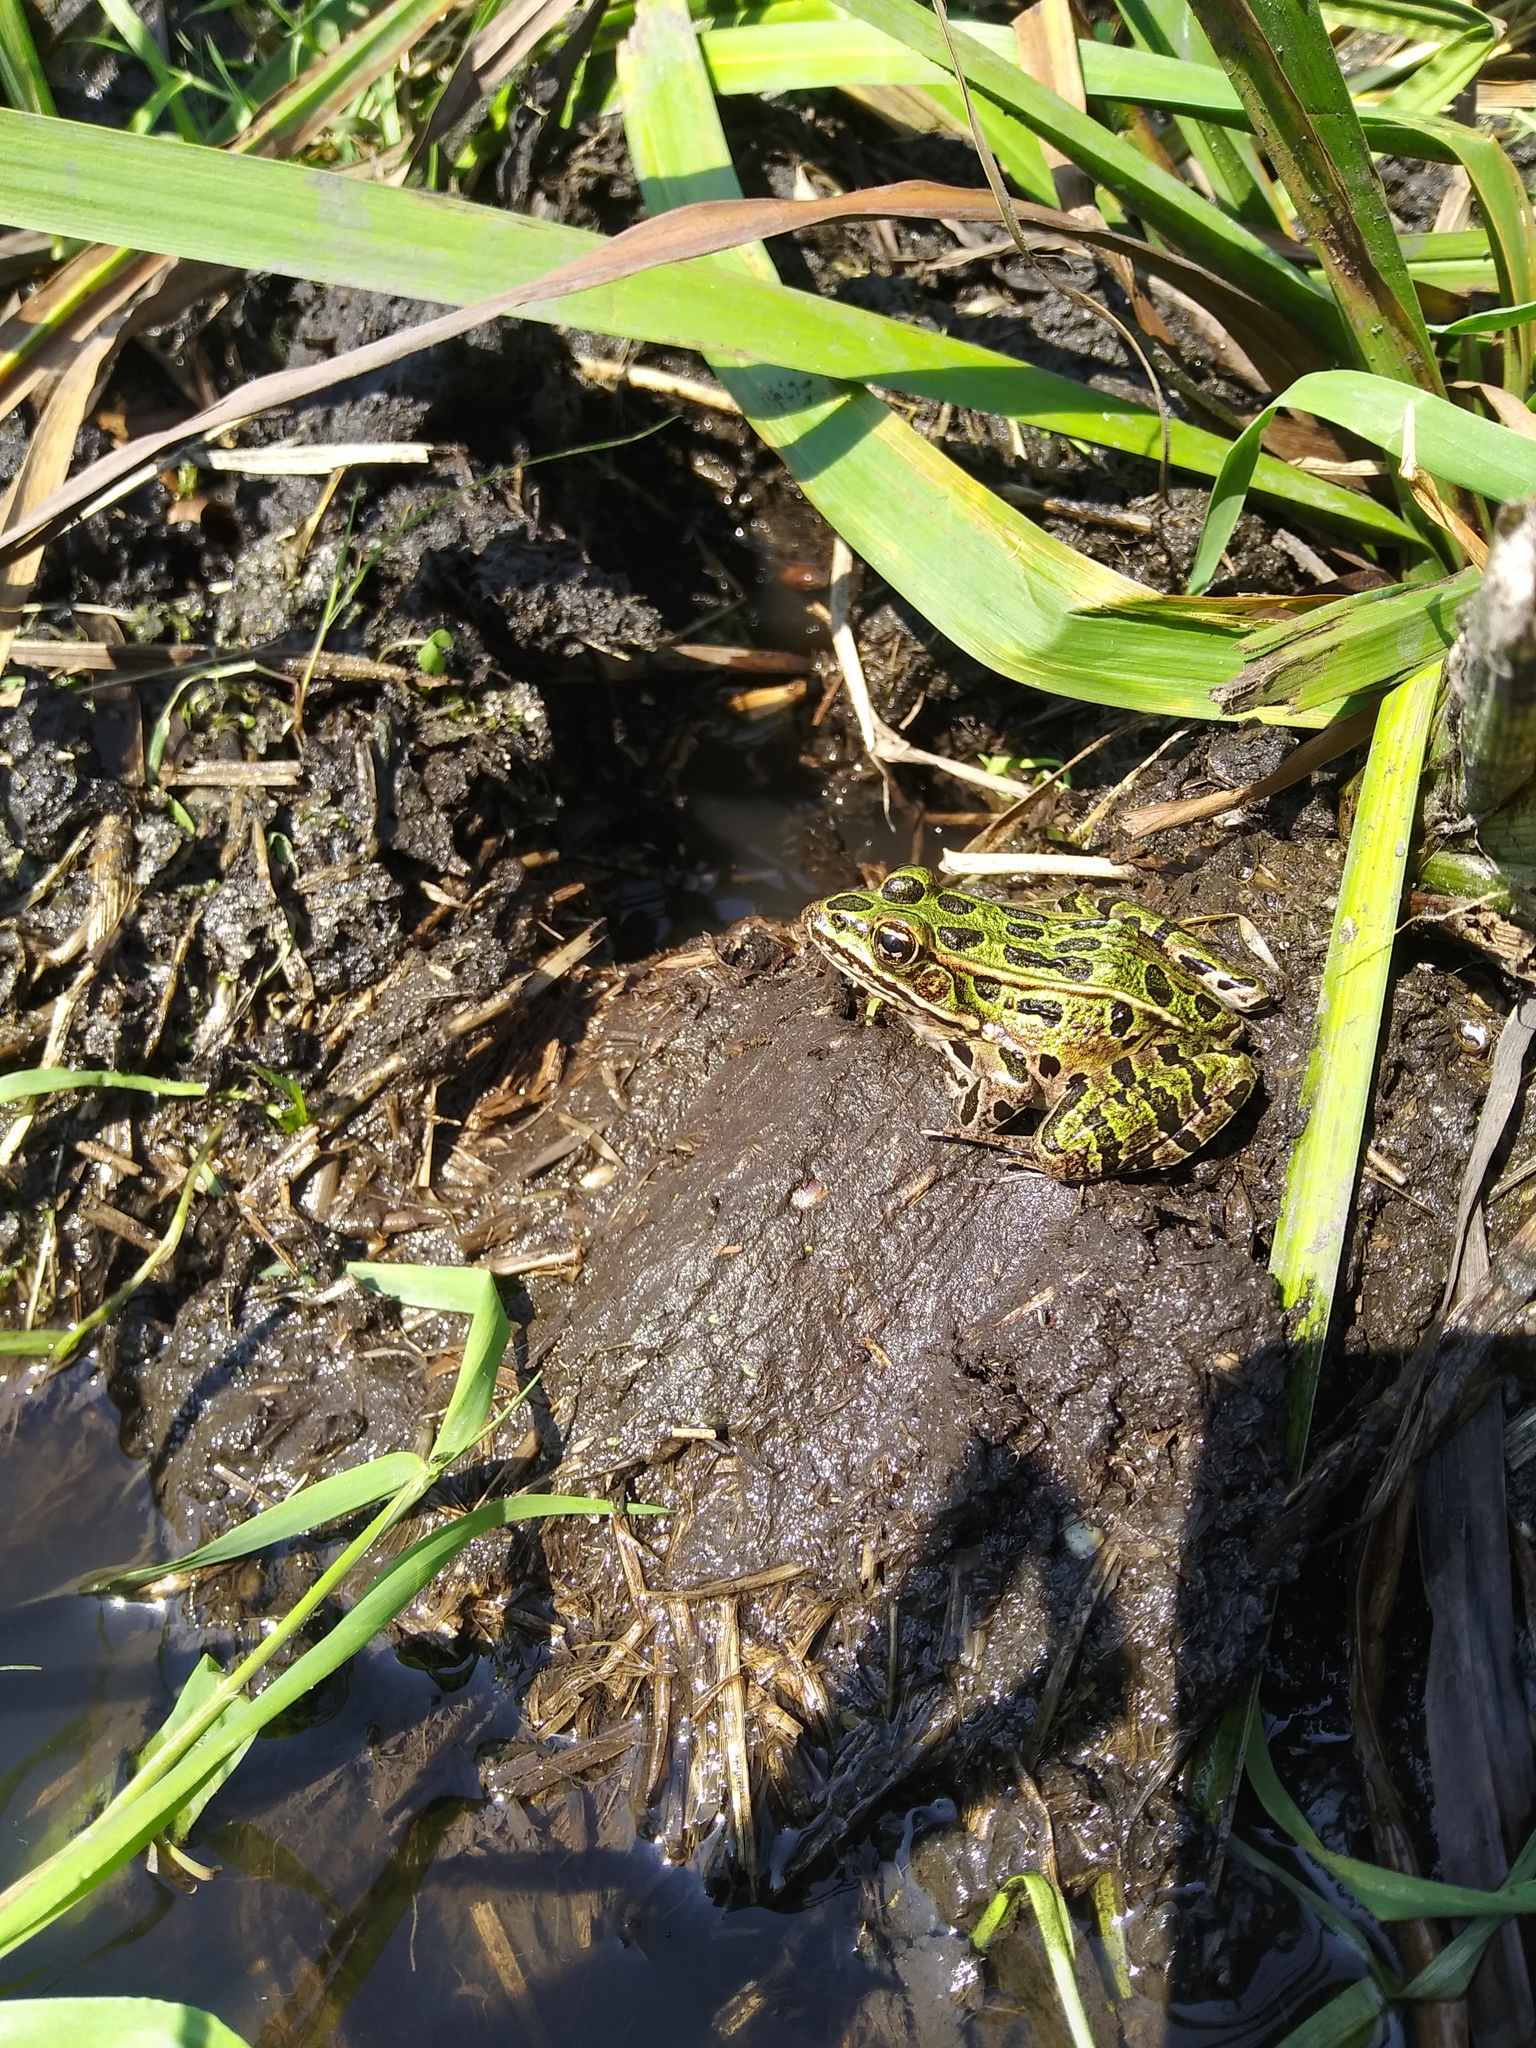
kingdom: Animalia
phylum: Chordata
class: Amphibia
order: Anura
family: Ranidae
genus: Lithobates
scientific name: Lithobates pipiens
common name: Northern leopard frog
